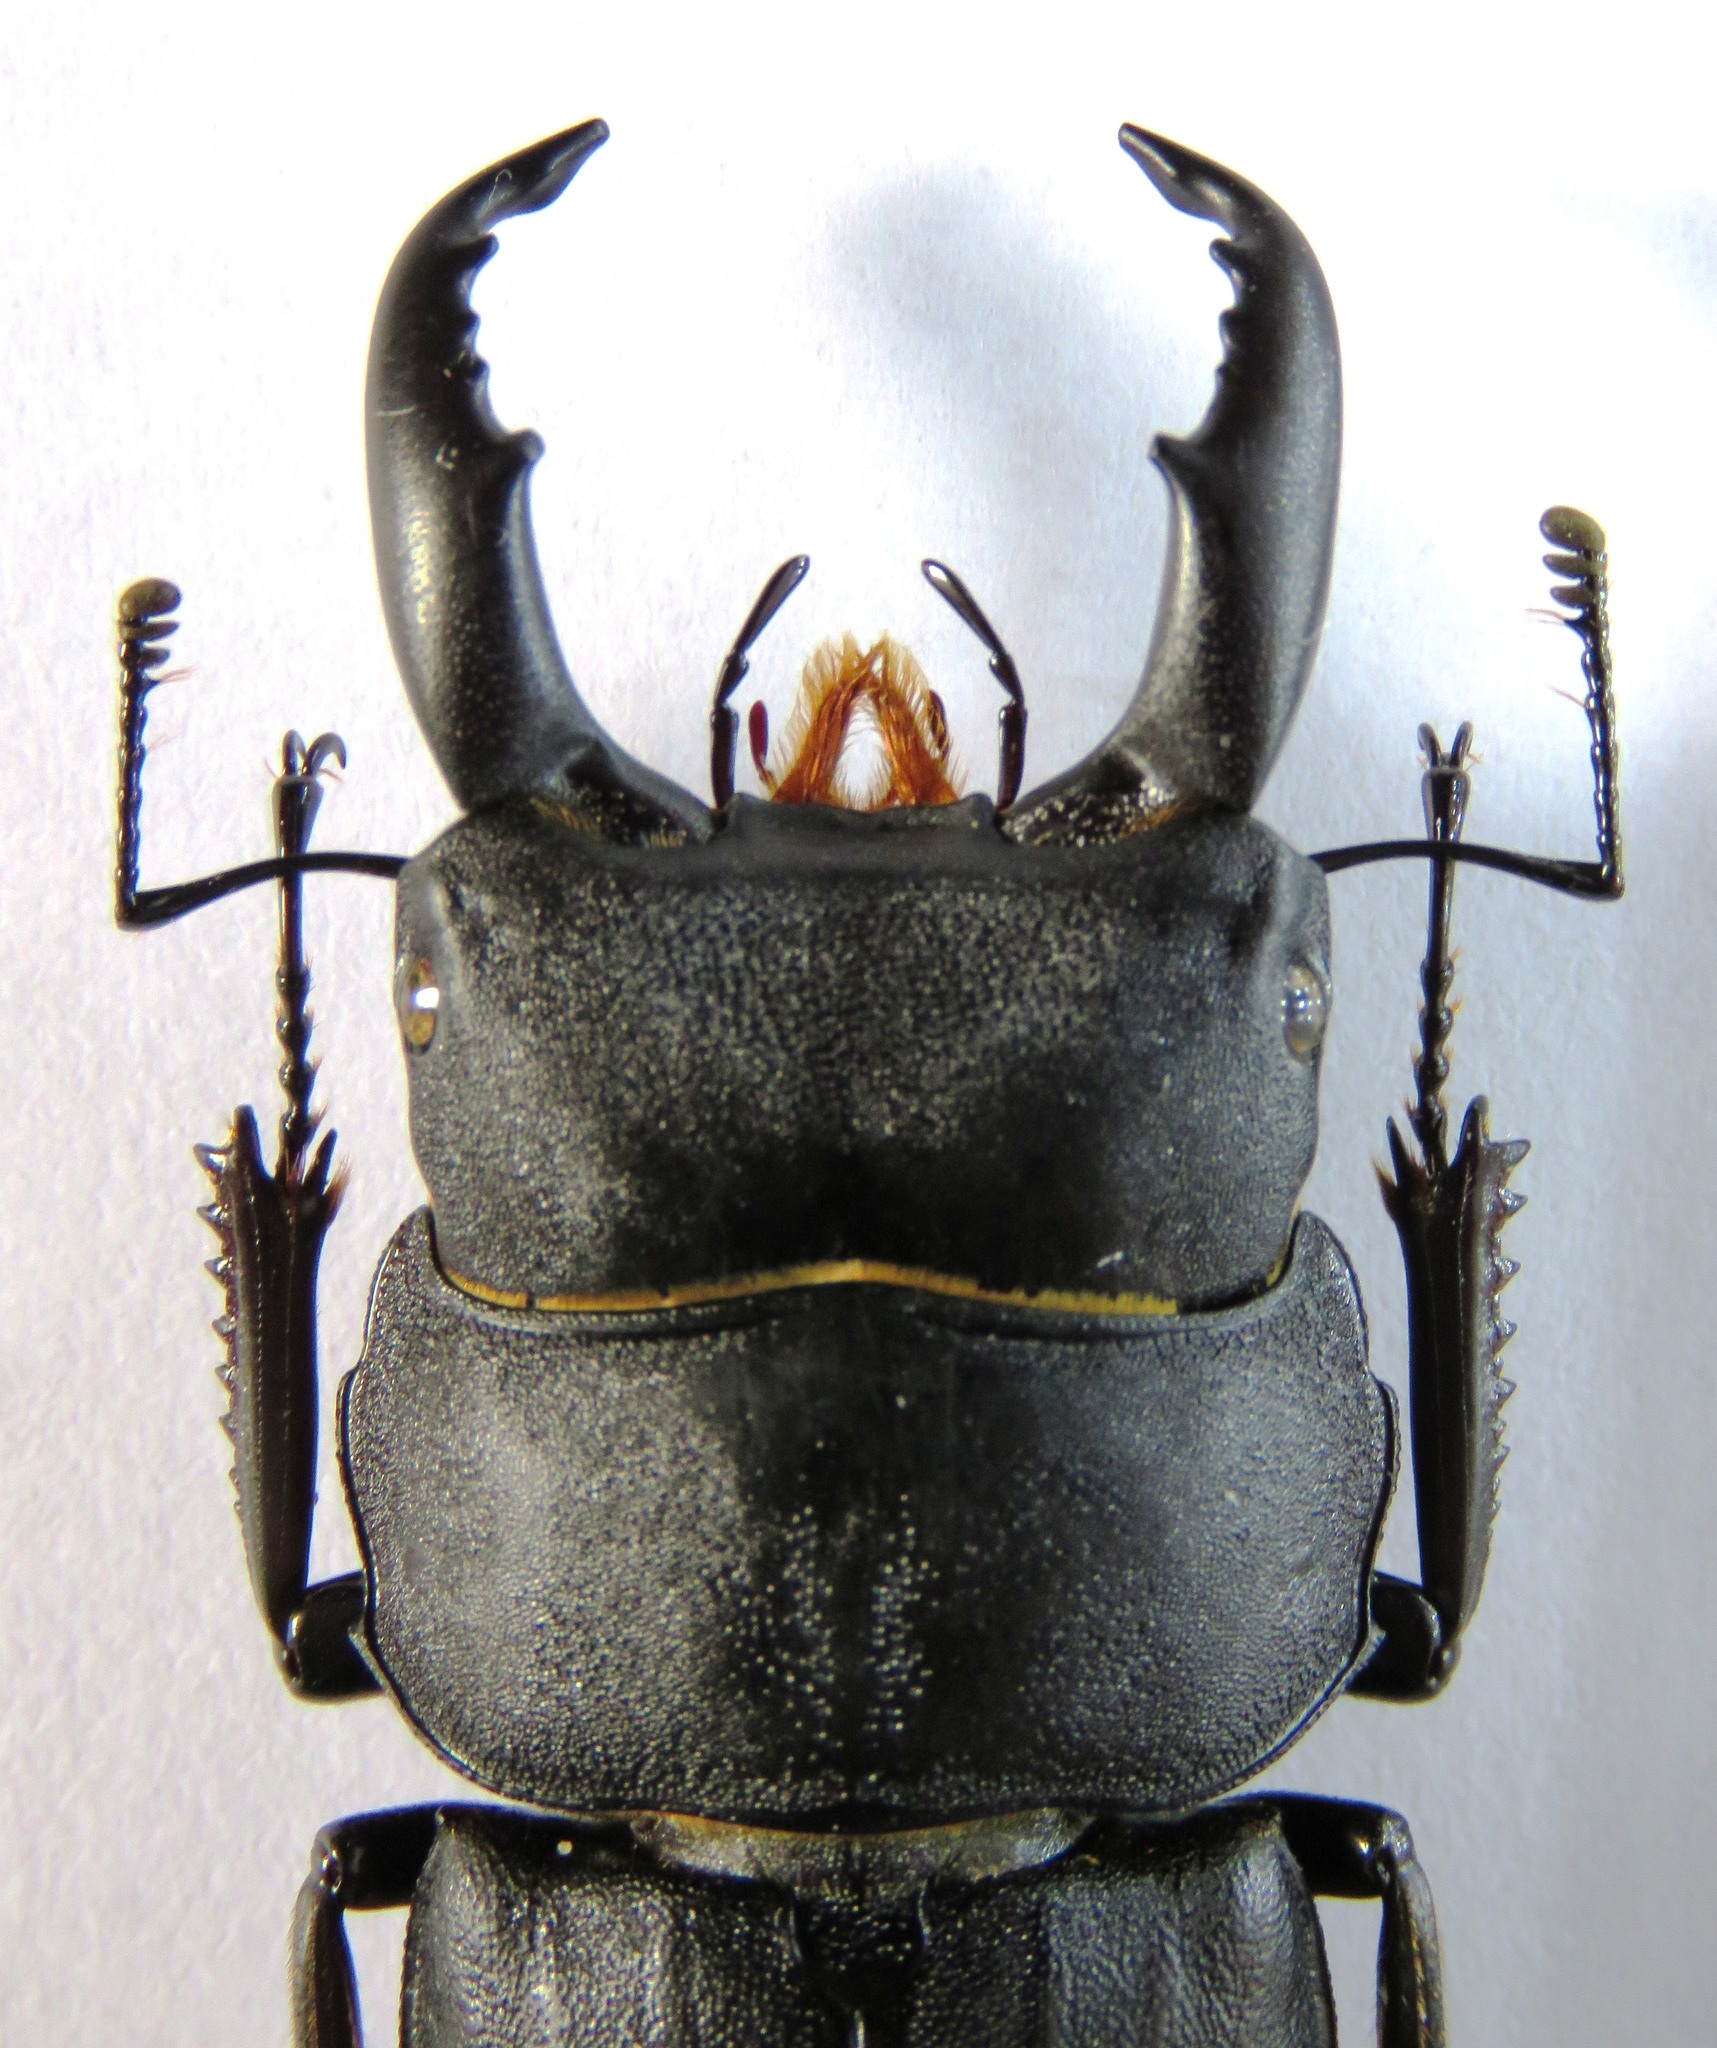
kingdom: Animalia
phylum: Arthropoda
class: Insecta
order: Coleoptera
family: Lucanidae
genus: Serrognathus
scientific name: Serrognathus costatus
